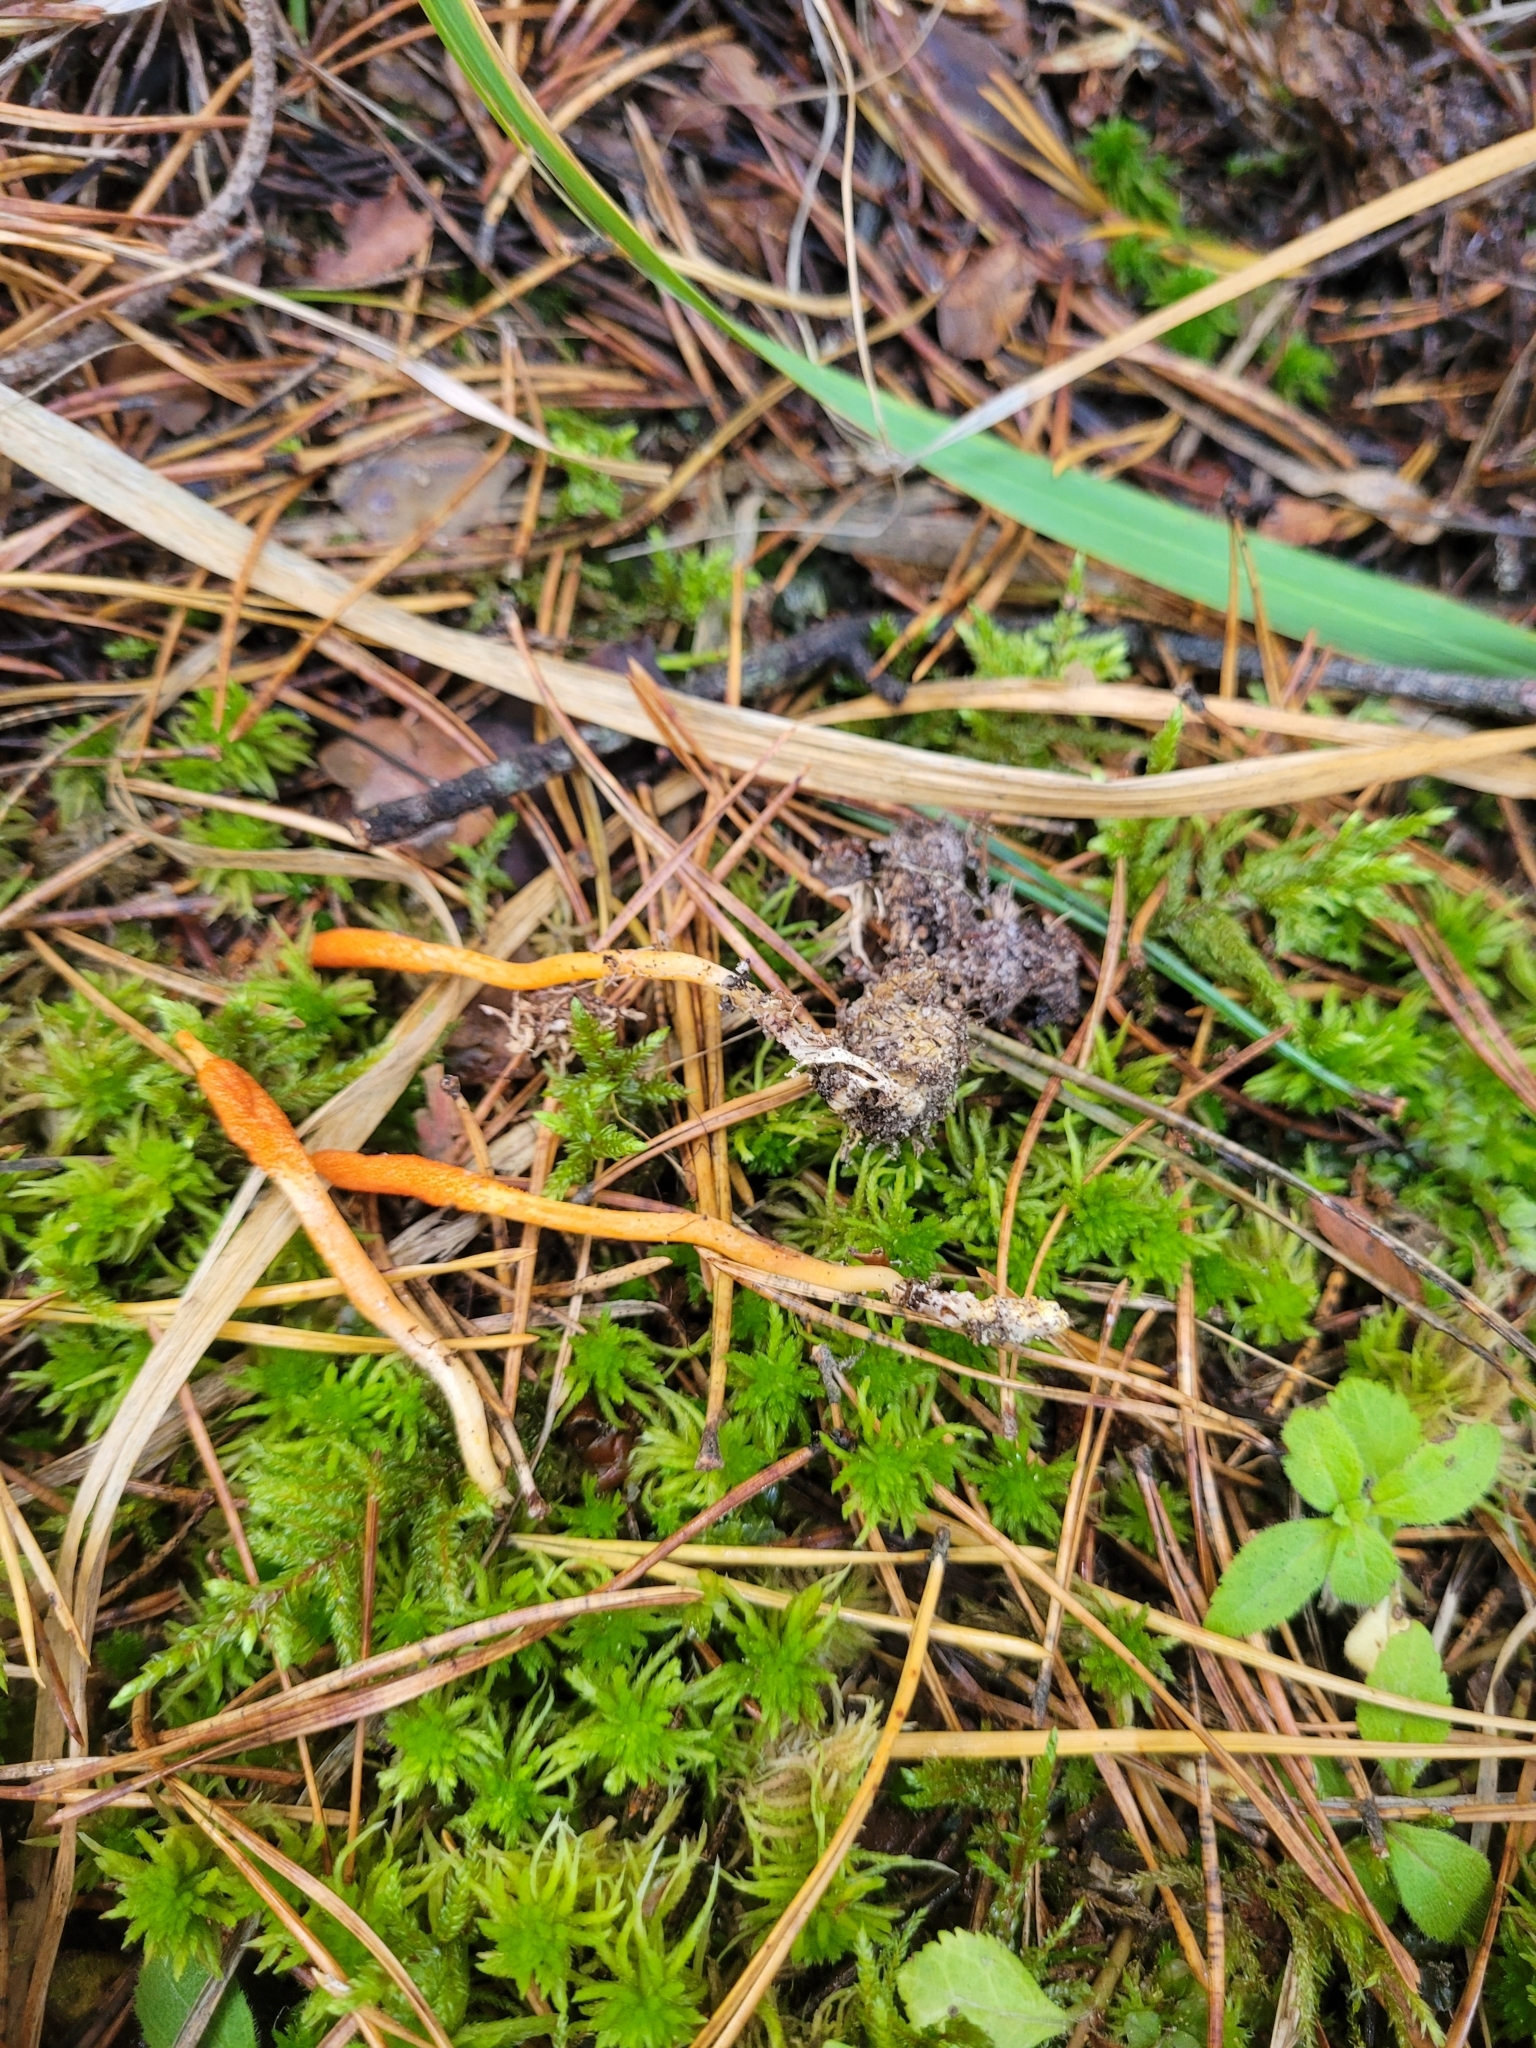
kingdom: Fungi
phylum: Ascomycota
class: Sordariomycetes
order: Hypocreales
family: Cordycipitaceae
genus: Cordyceps
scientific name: Cordyceps militaris
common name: Scarlet caterpillar fungus
